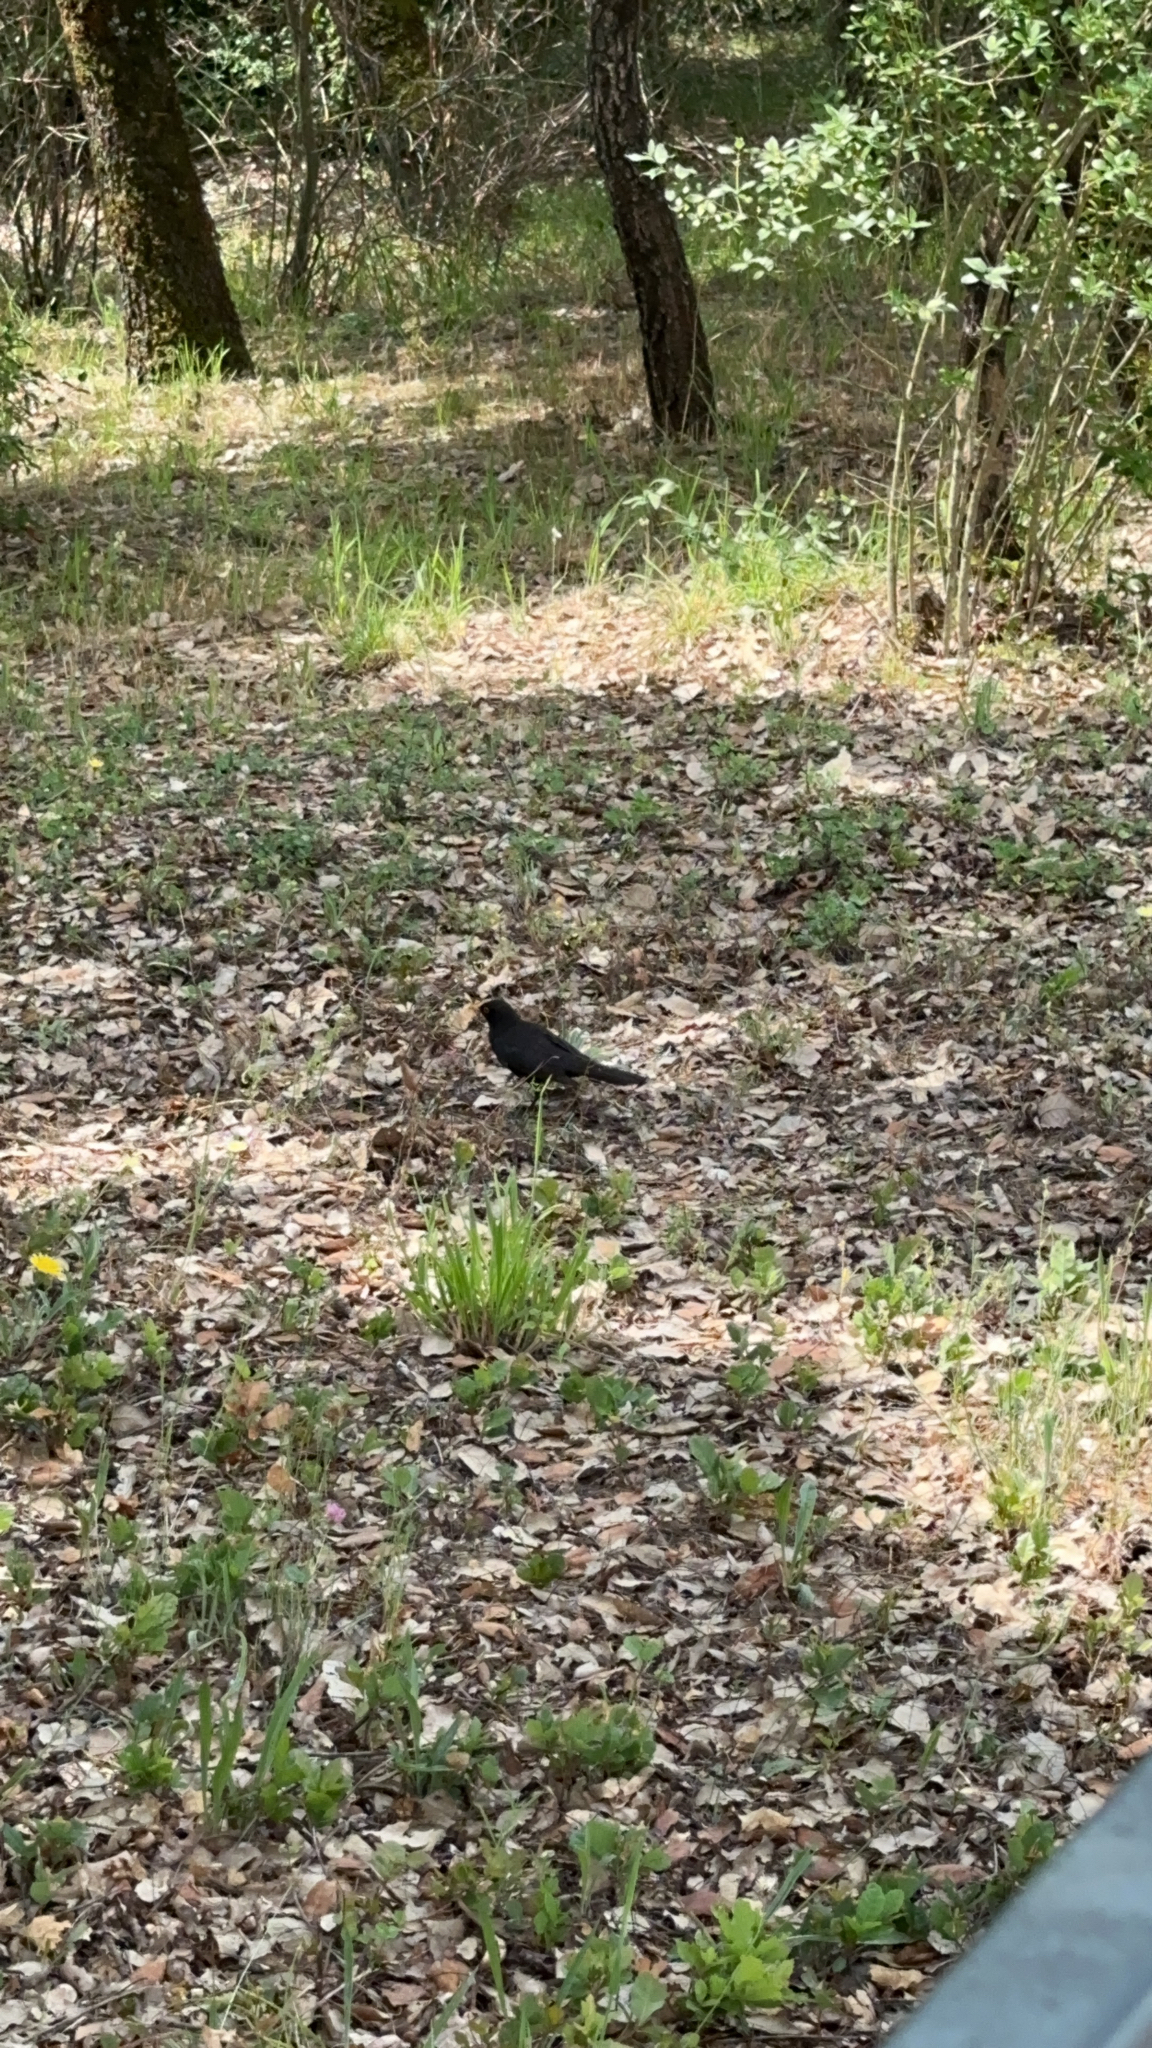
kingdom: Animalia
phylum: Chordata
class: Aves
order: Passeriformes
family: Turdidae
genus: Turdus
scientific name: Turdus merula
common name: Common blackbird
